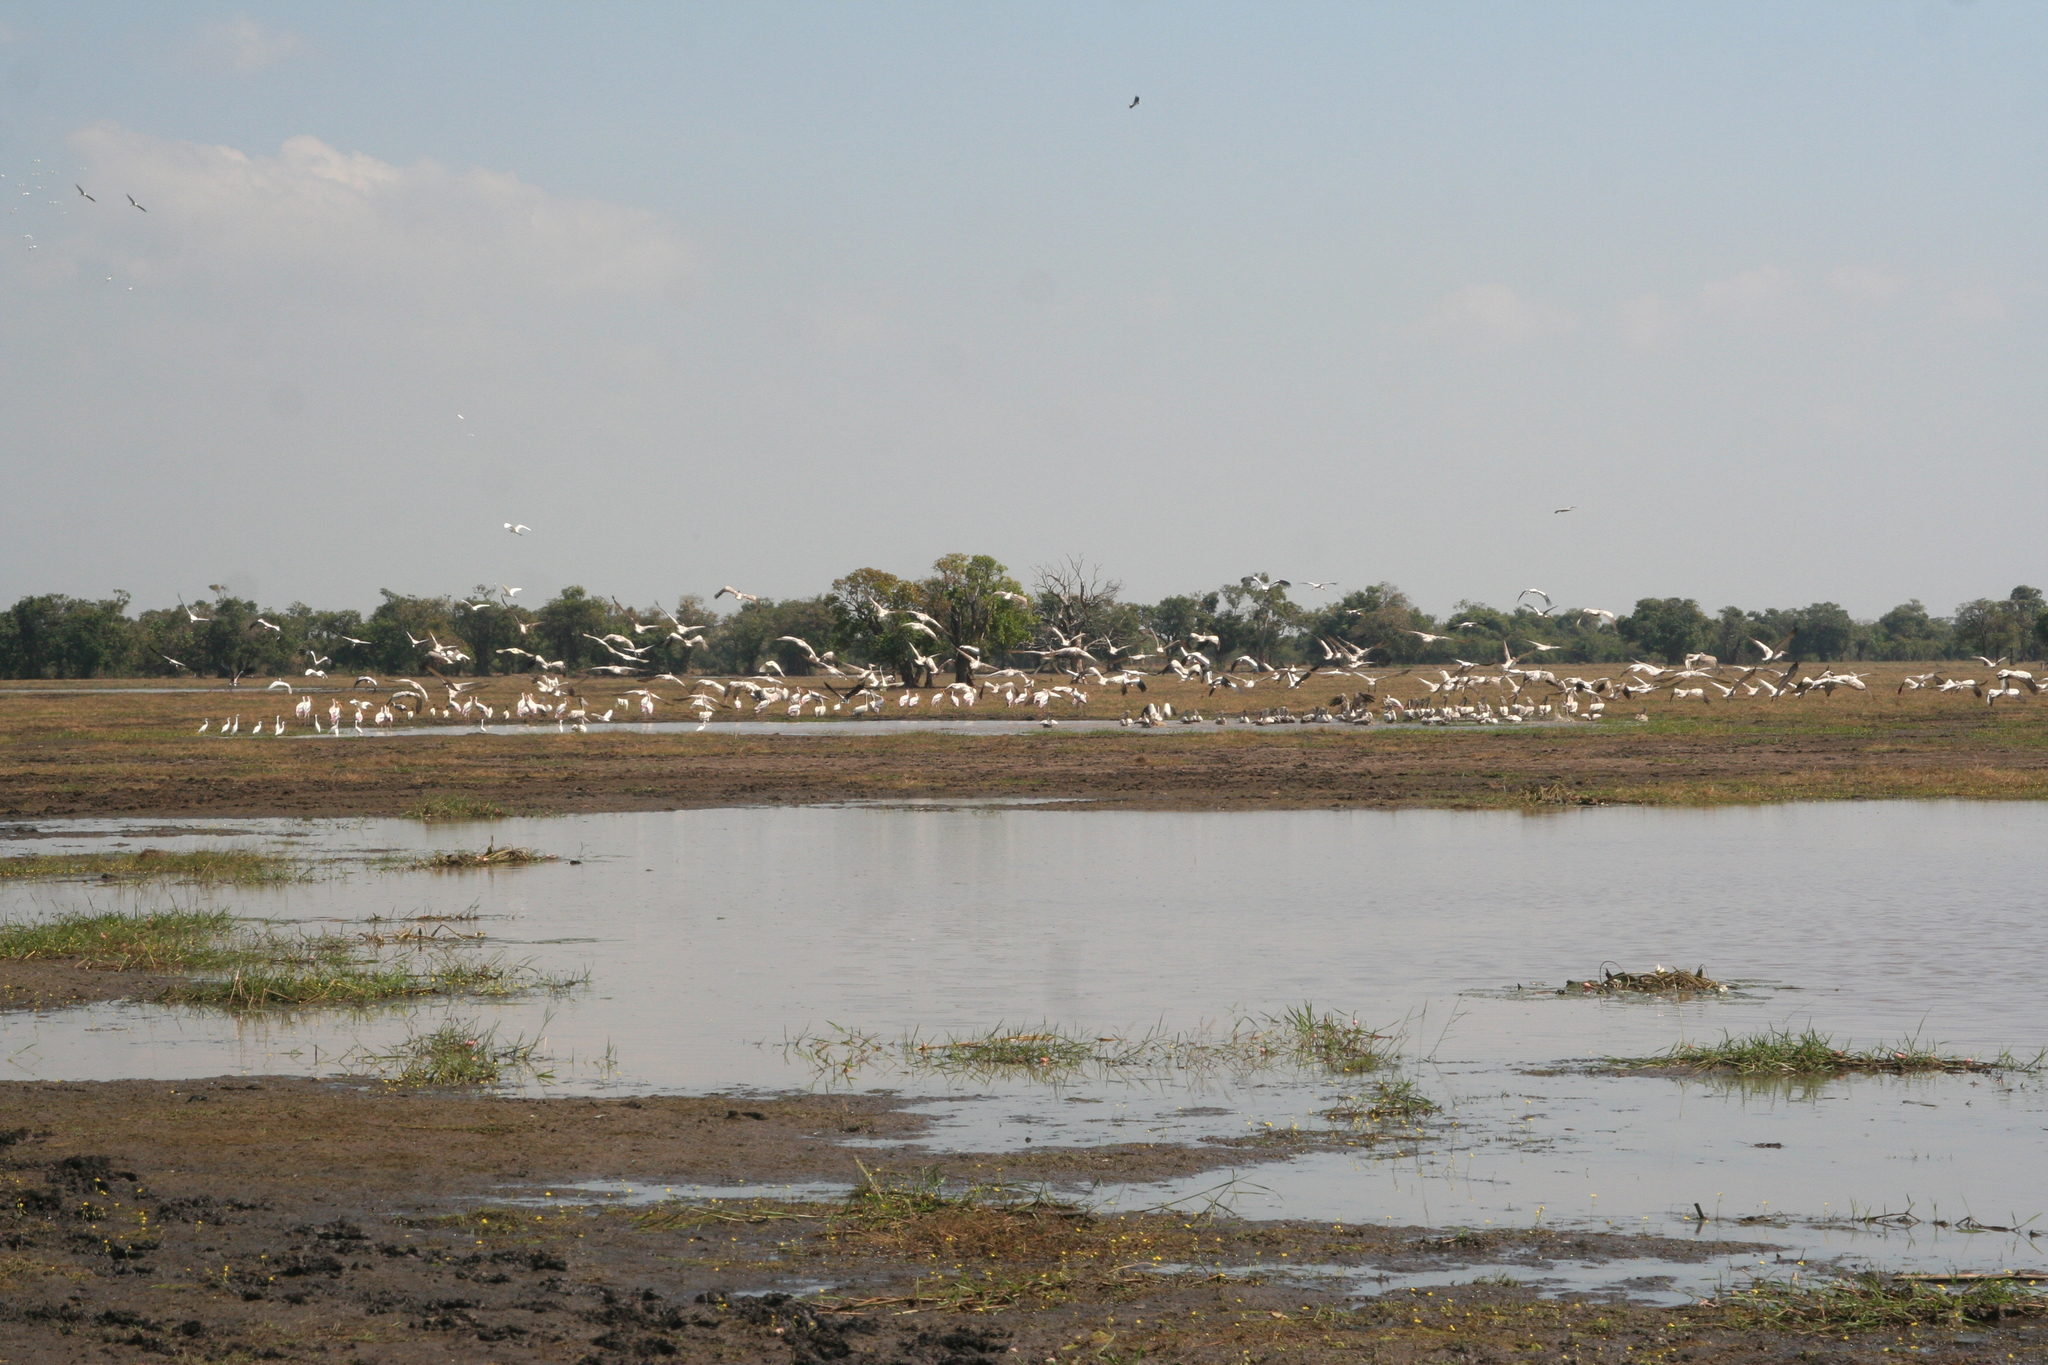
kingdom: Animalia
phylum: Chordata
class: Aves
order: Ciconiiformes
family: Ciconiidae
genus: Anastomus
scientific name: Anastomus oscitans
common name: Asian openbill
